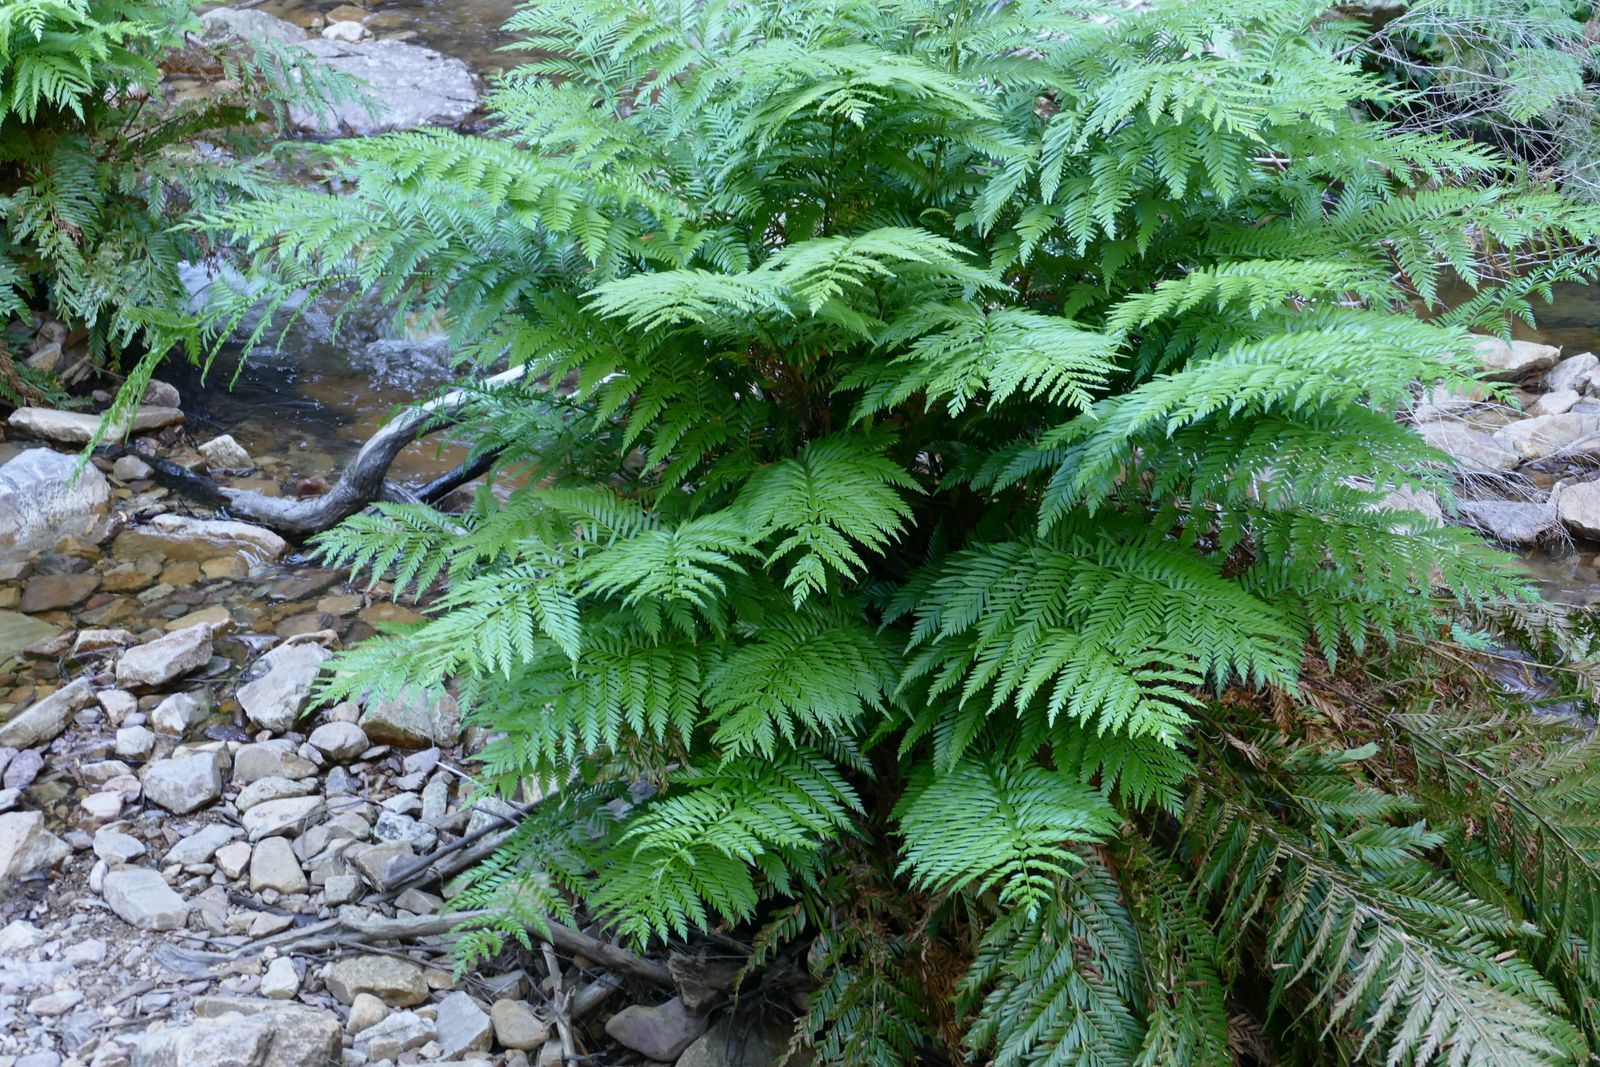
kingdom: Plantae
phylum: Tracheophyta
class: Polypodiopsida
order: Osmundales
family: Osmundaceae
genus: Todea
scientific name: Todea barbara
